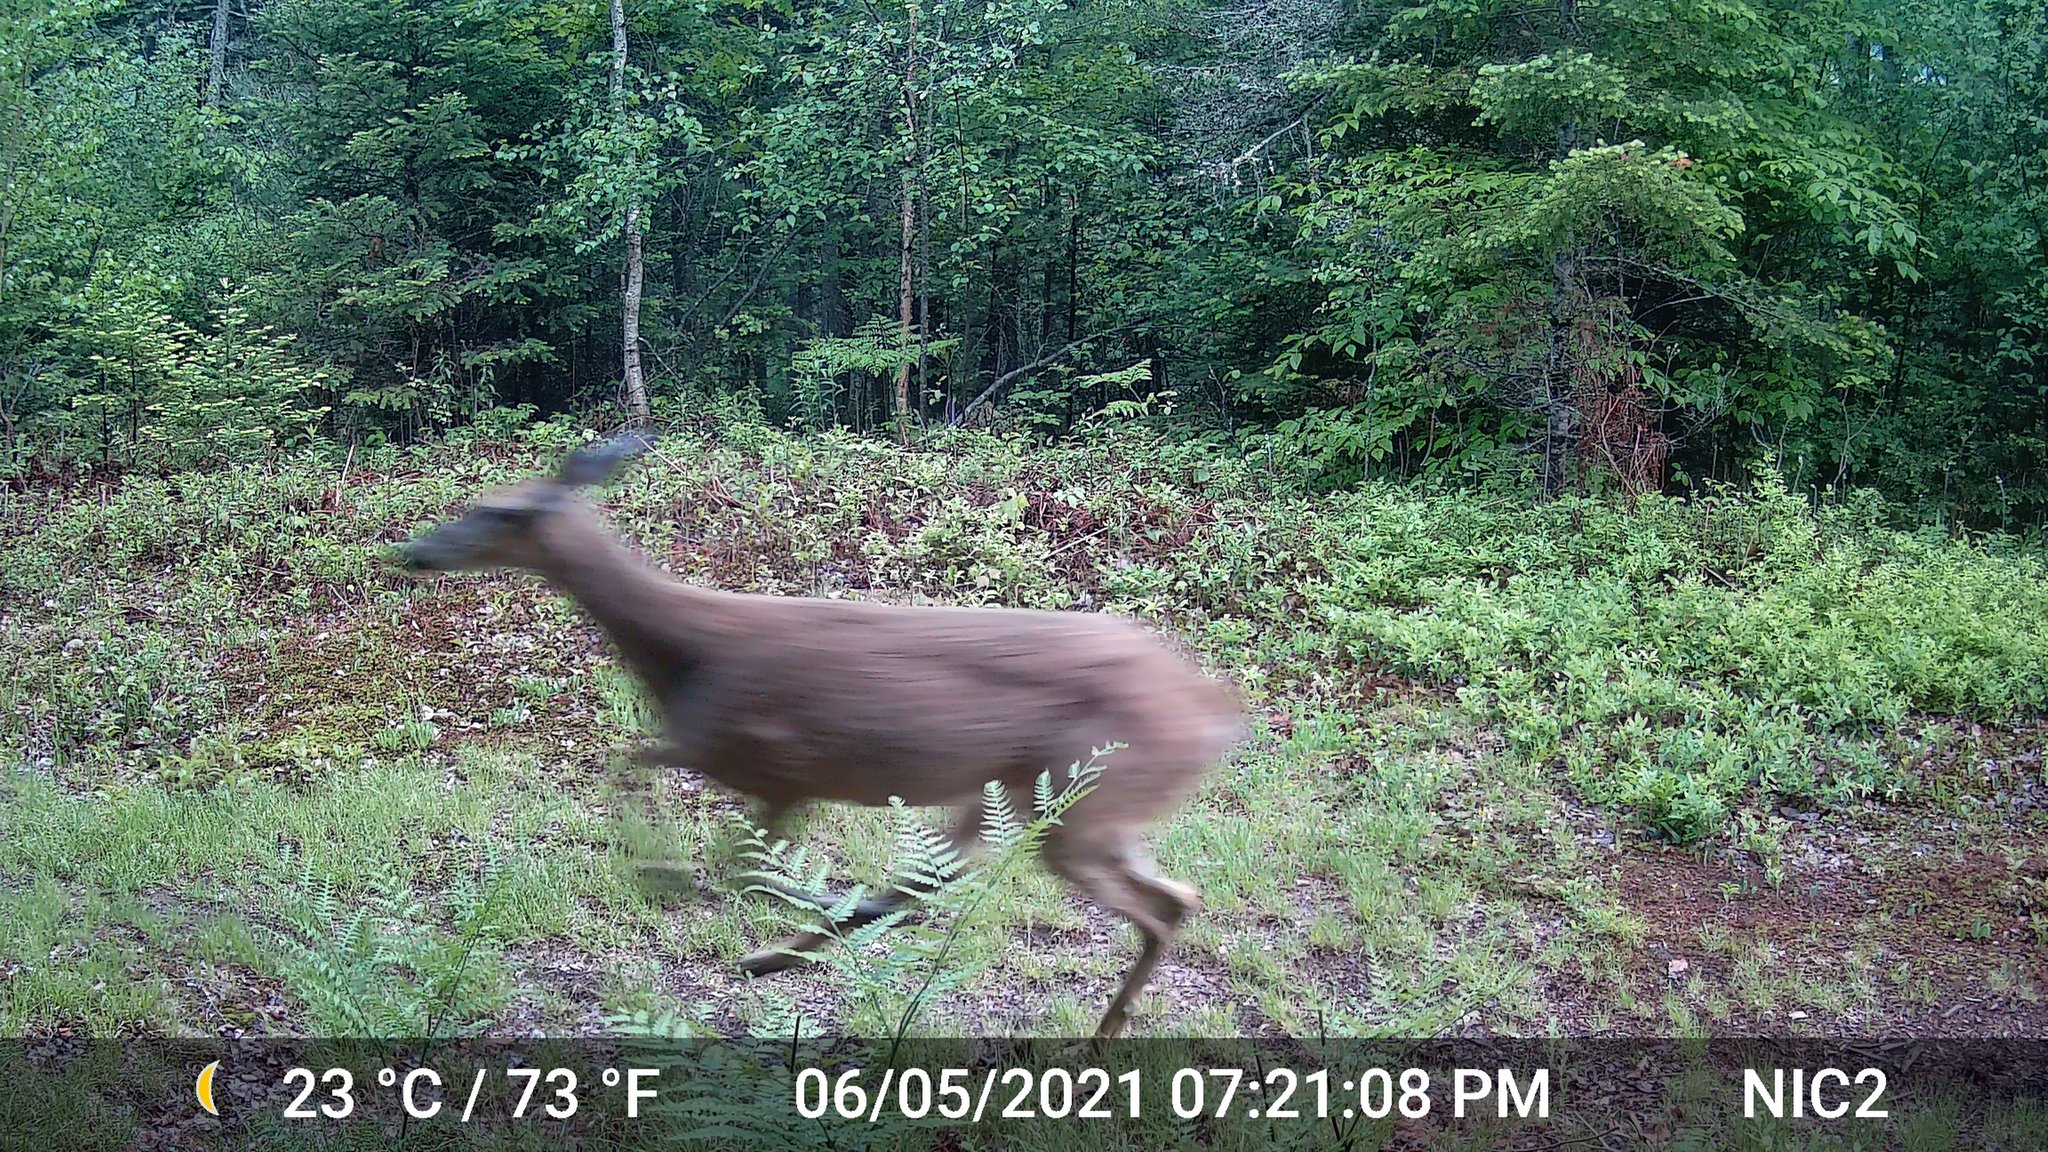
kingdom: Animalia
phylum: Chordata
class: Mammalia
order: Artiodactyla
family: Cervidae
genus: Odocoileus
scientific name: Odocoileus virginianus
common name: White-tailed deer
